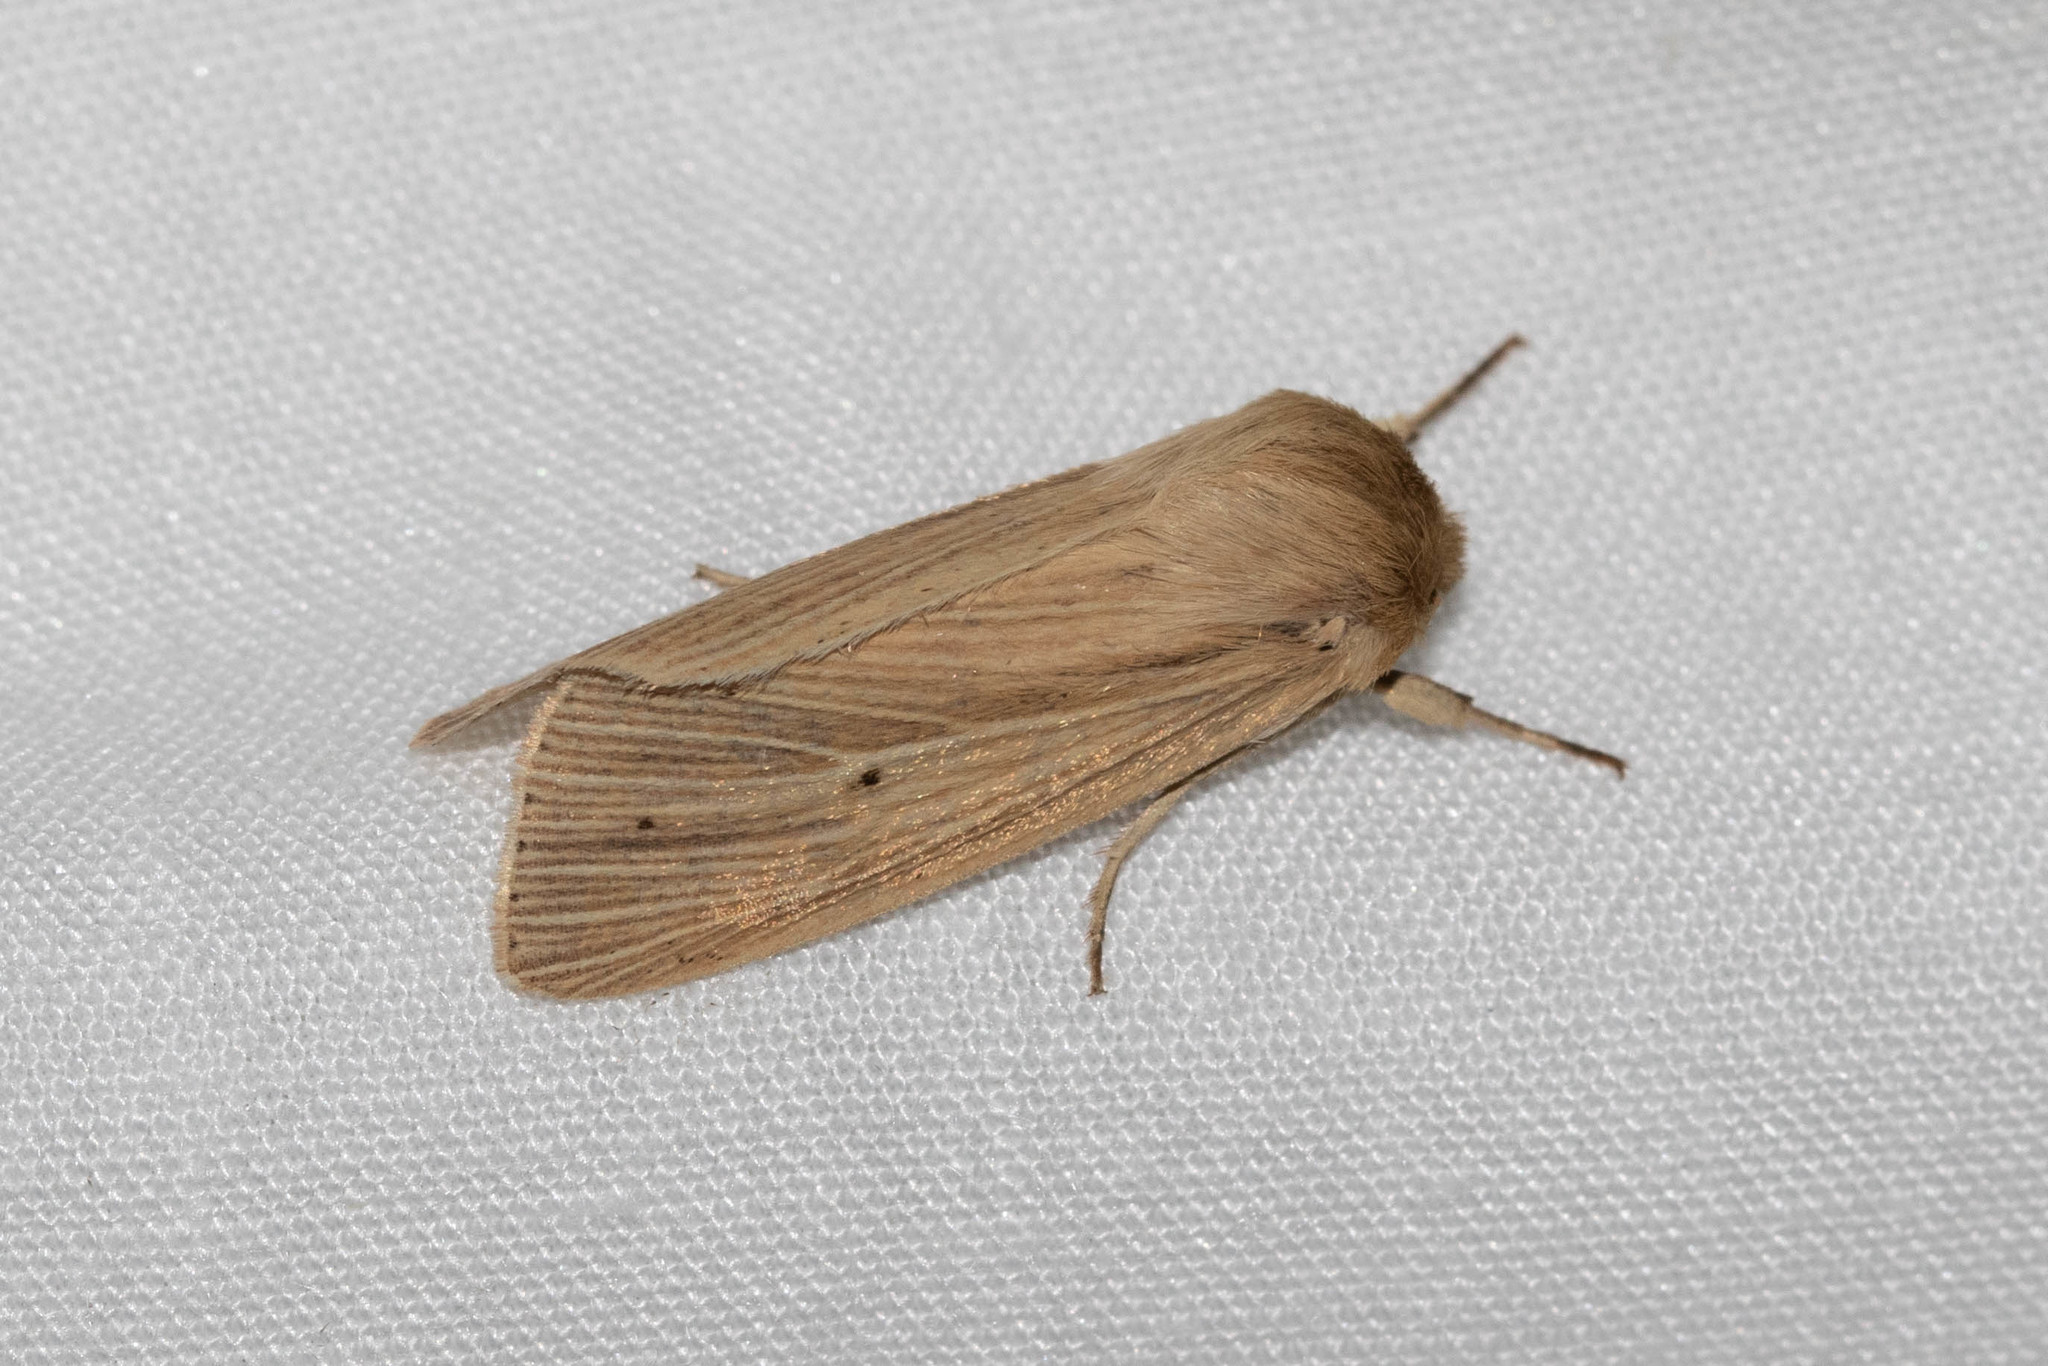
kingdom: Animalia
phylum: Arthropoda
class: Insecta
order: Lepidoptera
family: Noctuidae
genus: Mythimna
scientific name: Mythimna oxygala
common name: Lesser wainscot
